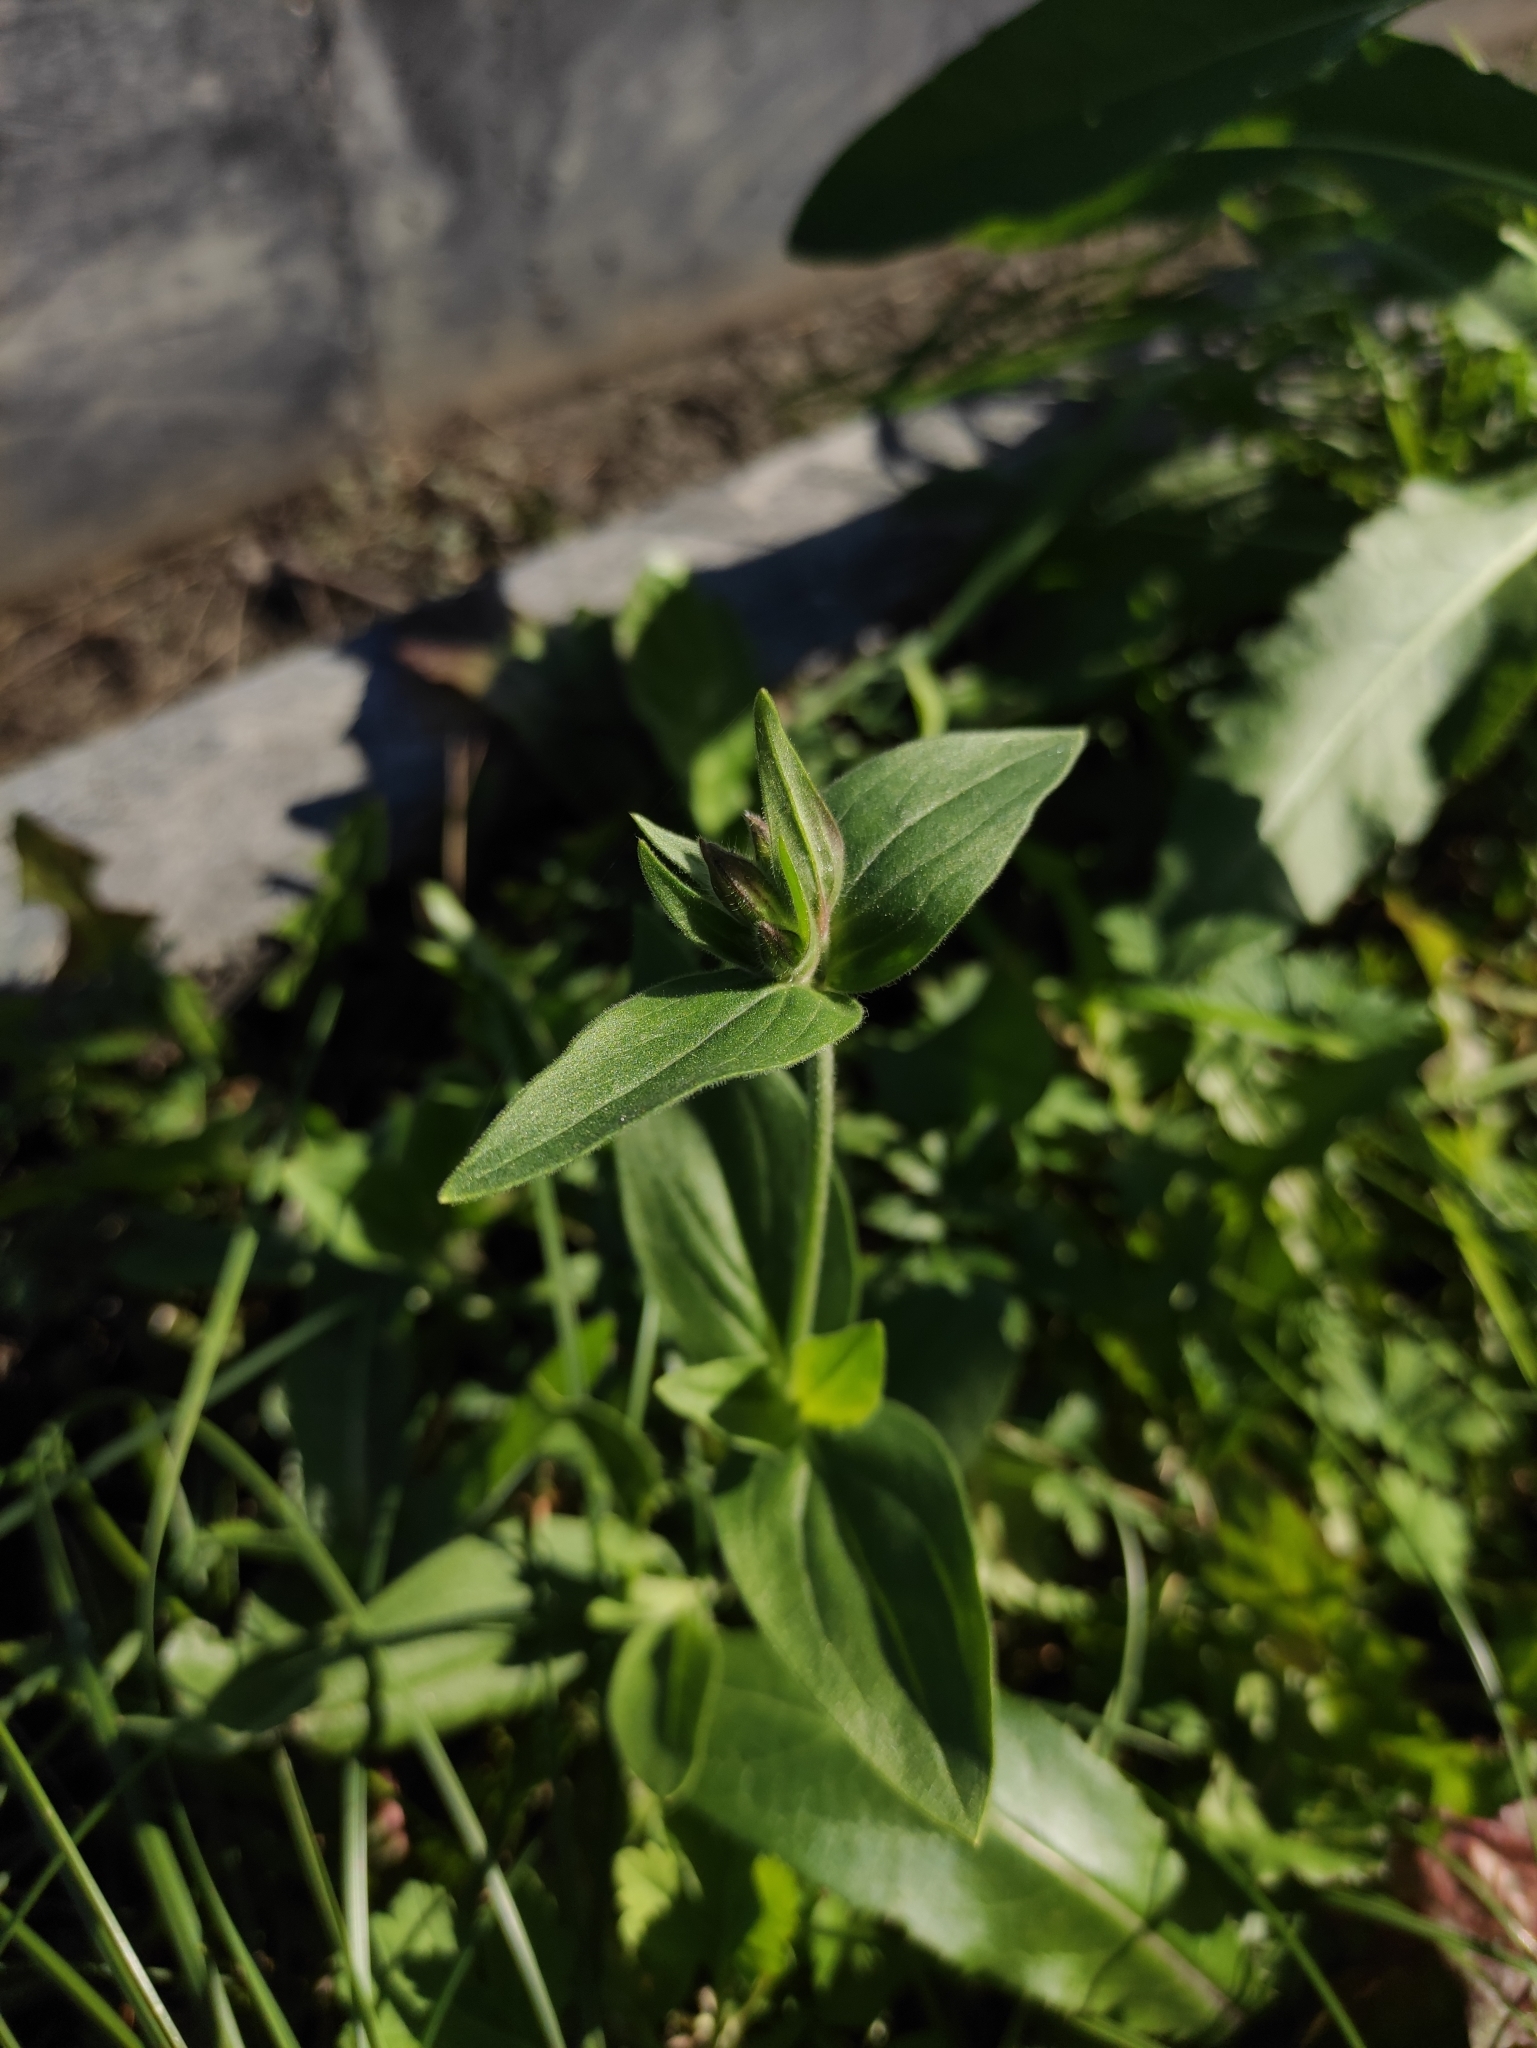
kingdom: Plantae
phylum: Tracheophyta
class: Magnoliopsida
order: Caryophyllales
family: Caryophyllaceae
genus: Saponaria
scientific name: Saponaria officinalis
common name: Soapwort
